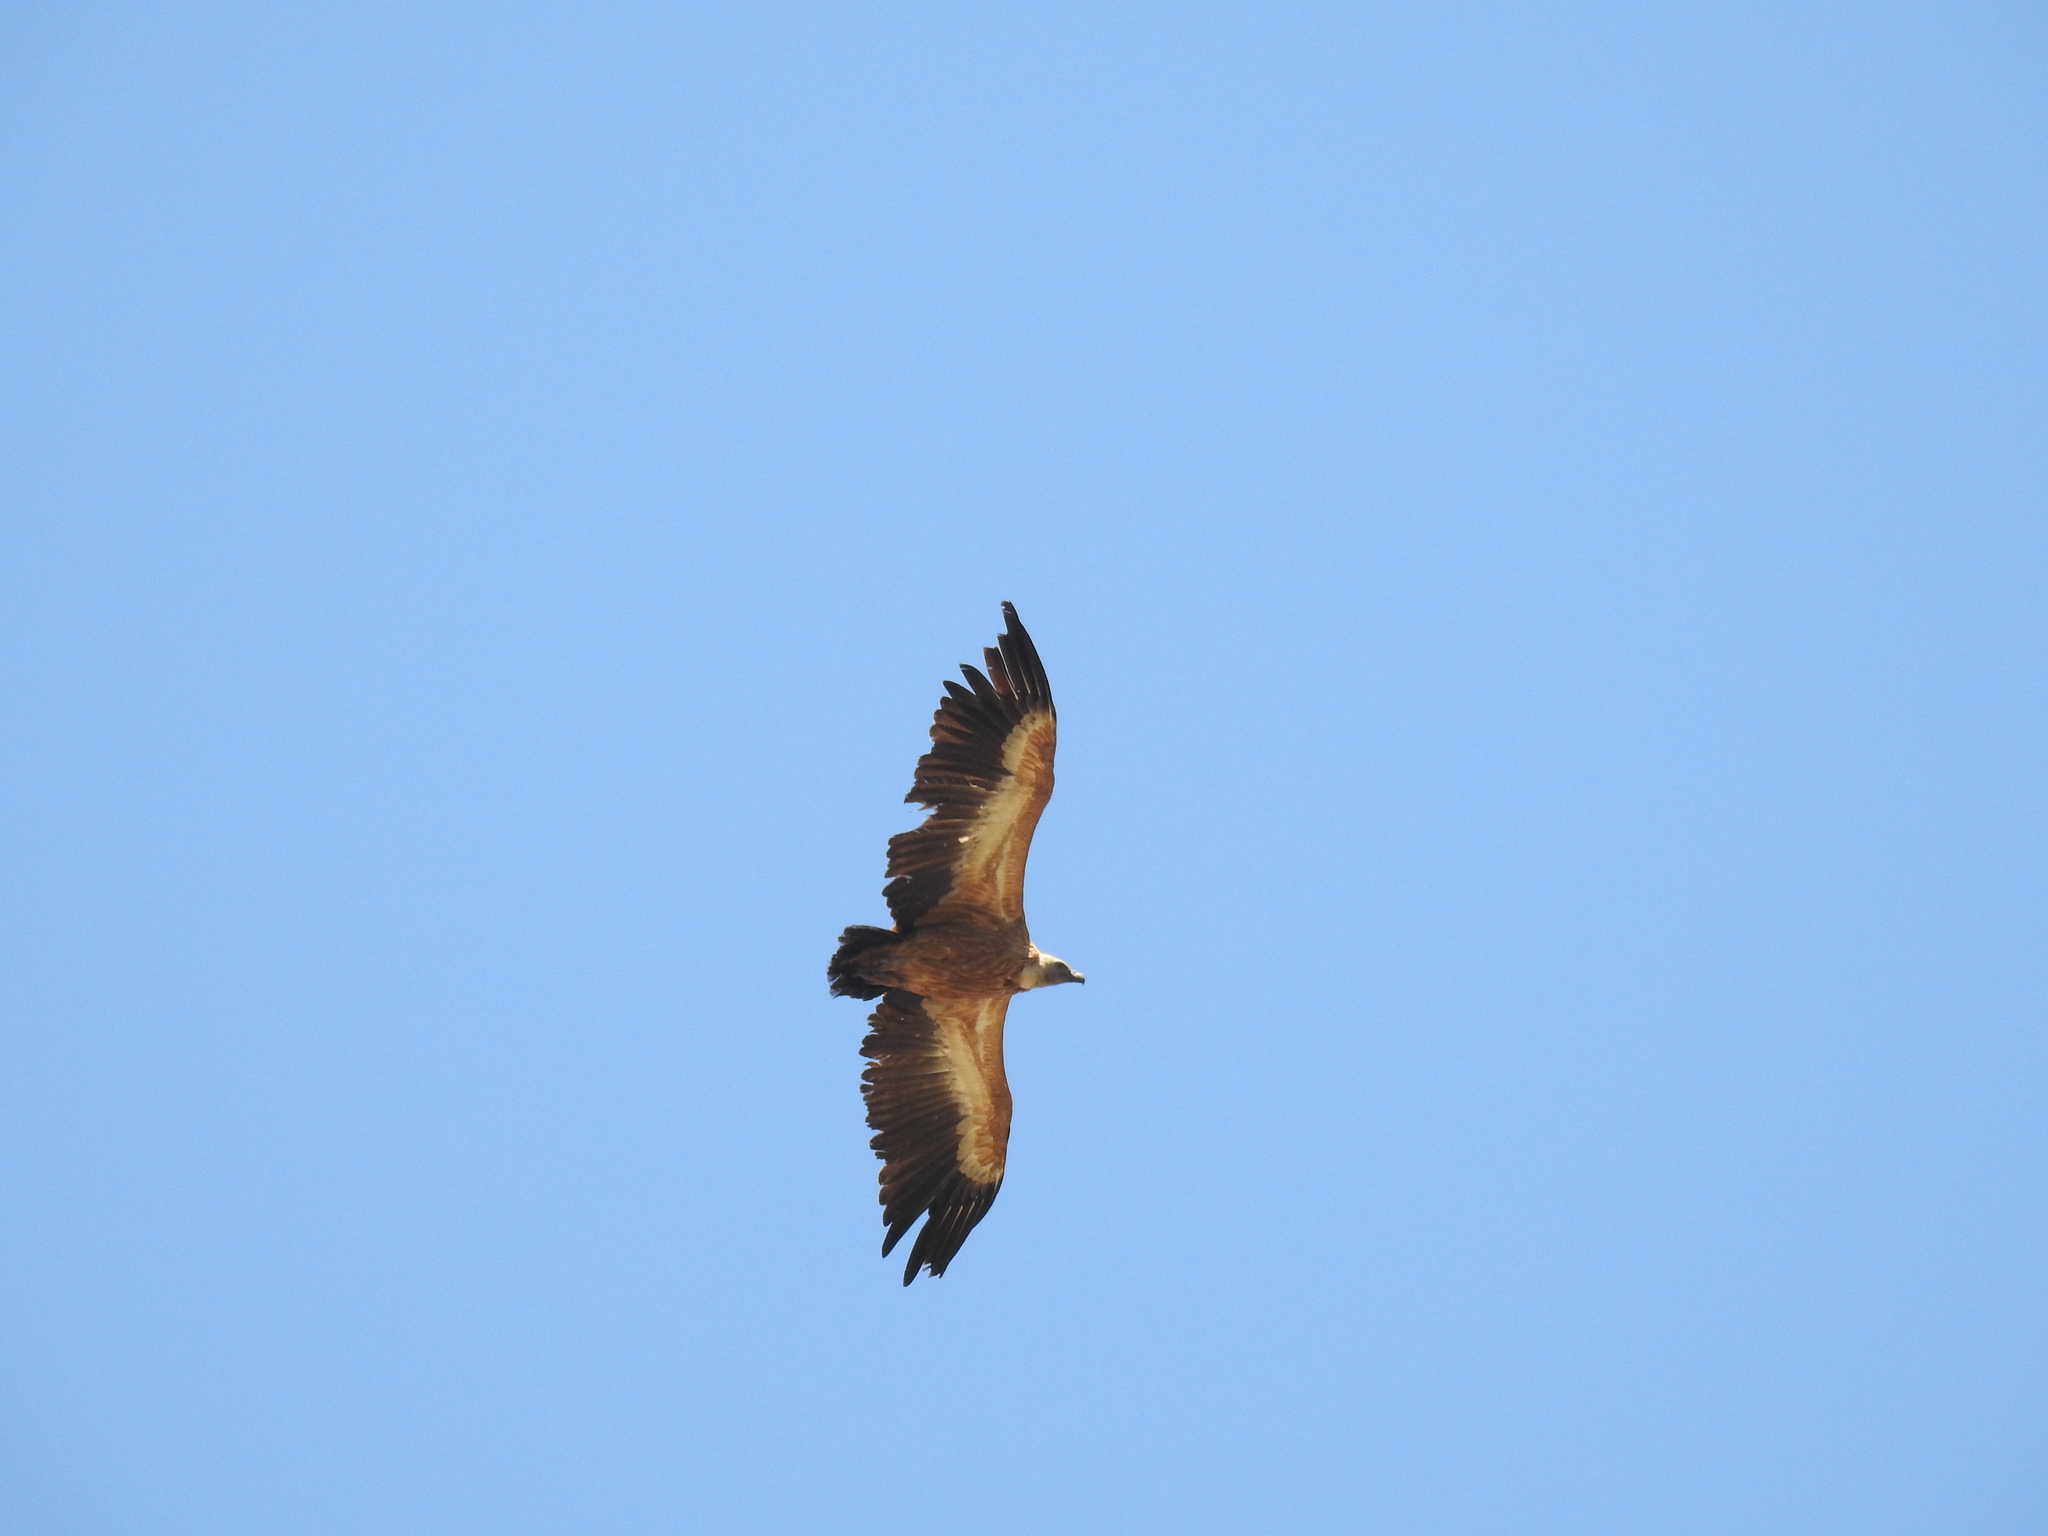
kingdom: Animalia
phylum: Chordata
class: Aves
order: Accipitriformes
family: Accipitridae
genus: Gyps
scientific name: Gyps fulvus
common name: Griffon vulture
